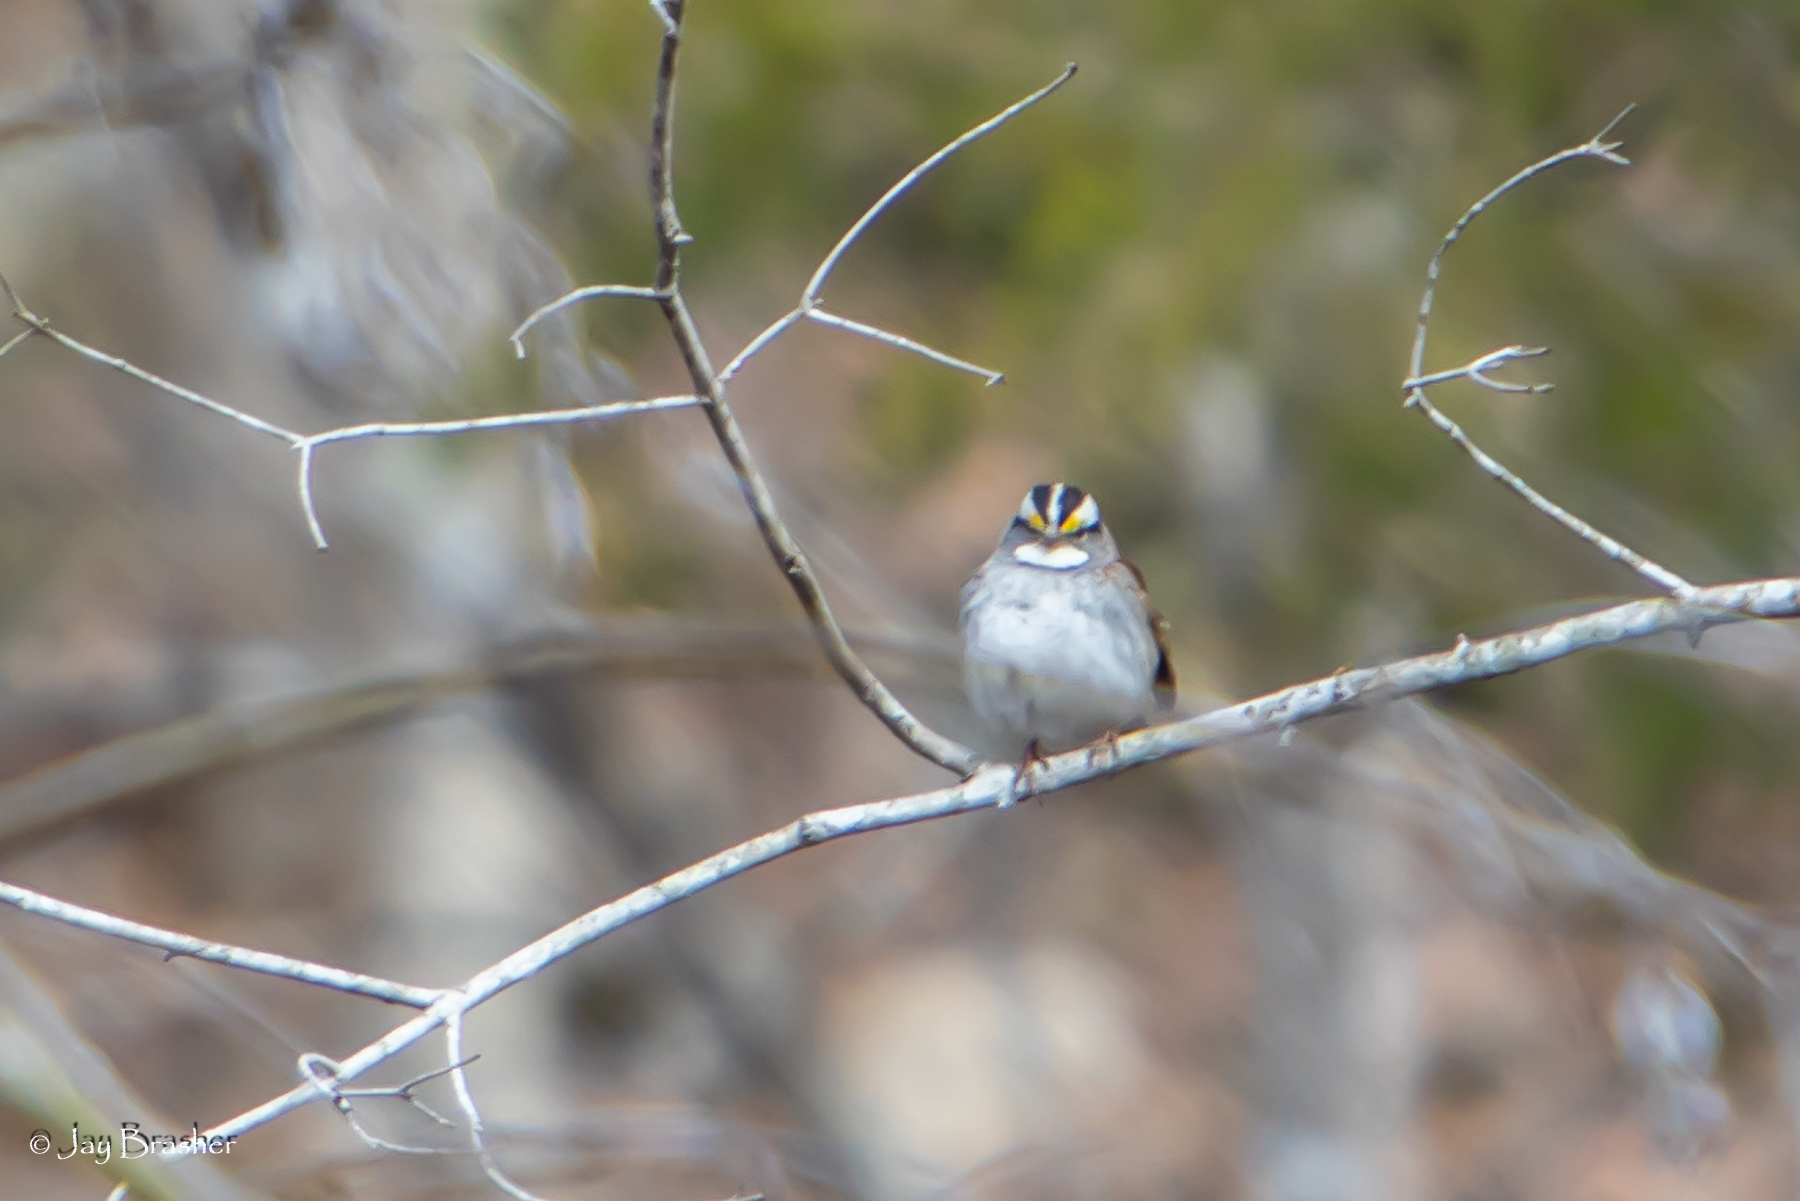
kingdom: Animalia
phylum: Chordata
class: Aves
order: Passeriformes
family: Passerellidae
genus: Zonotrichia
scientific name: Zonotrichia albicollis
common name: White-throated sparrow
